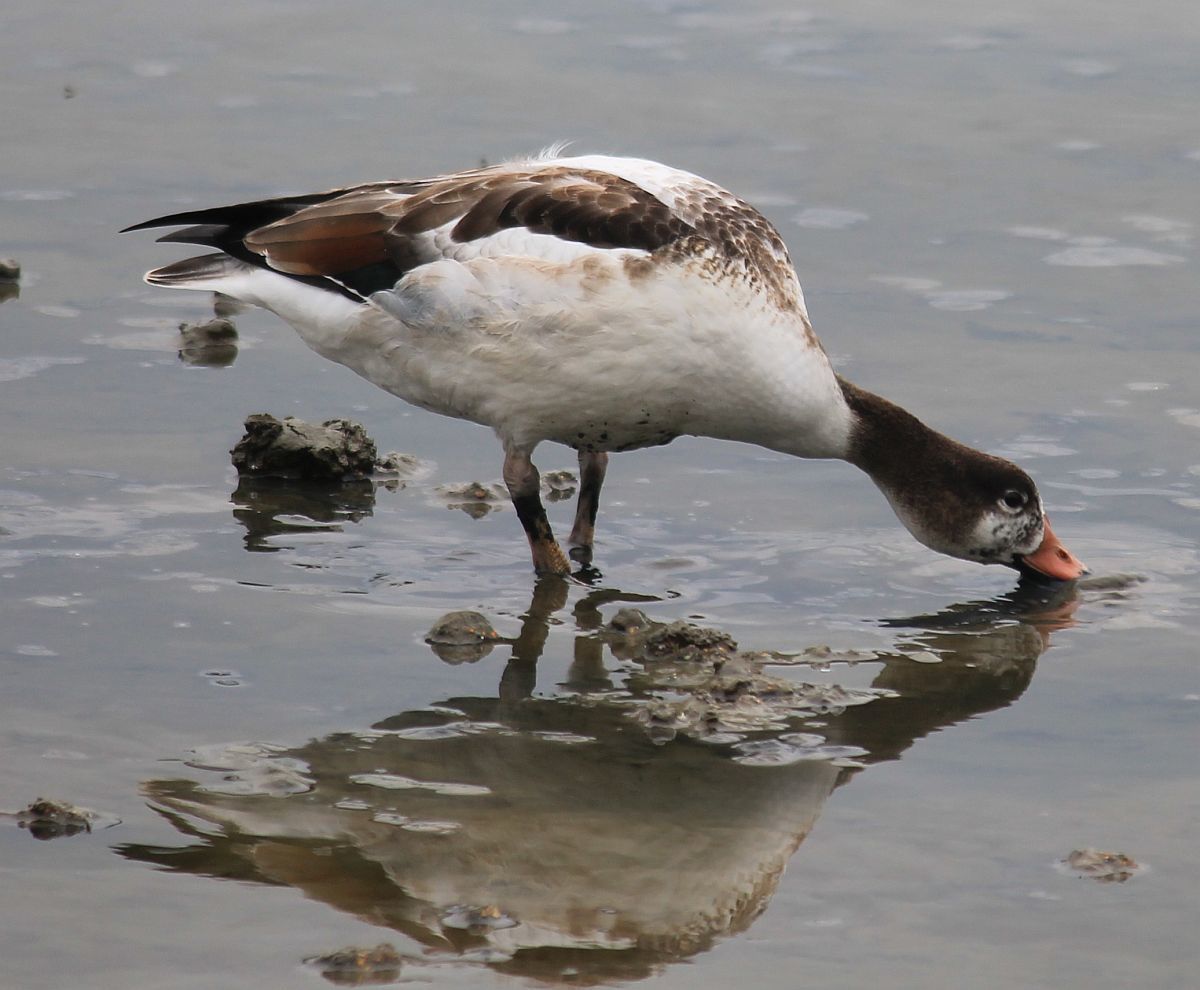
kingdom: Animalia
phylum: Chordata
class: Aves
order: Anseriformes
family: Anatidae
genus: Tadorna
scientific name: Tadorna tadorna
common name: Common shelduck
